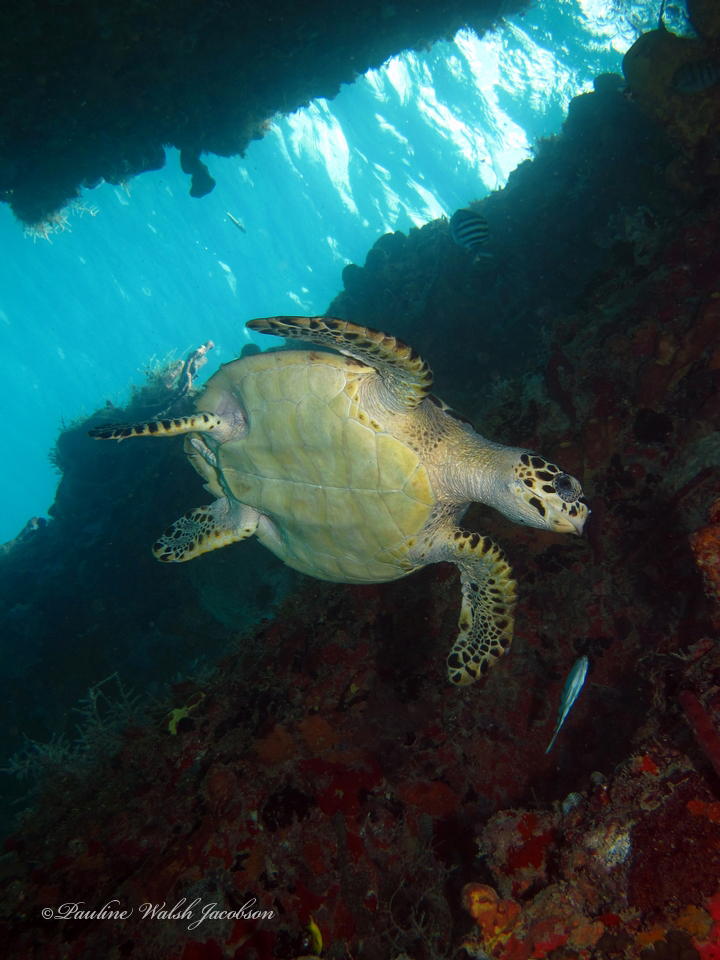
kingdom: Animalia
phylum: Chordata
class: Testudines
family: Cheloniidae
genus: Eretmochelys
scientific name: Eretmochelys imbricata
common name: Hawksbill turtle
